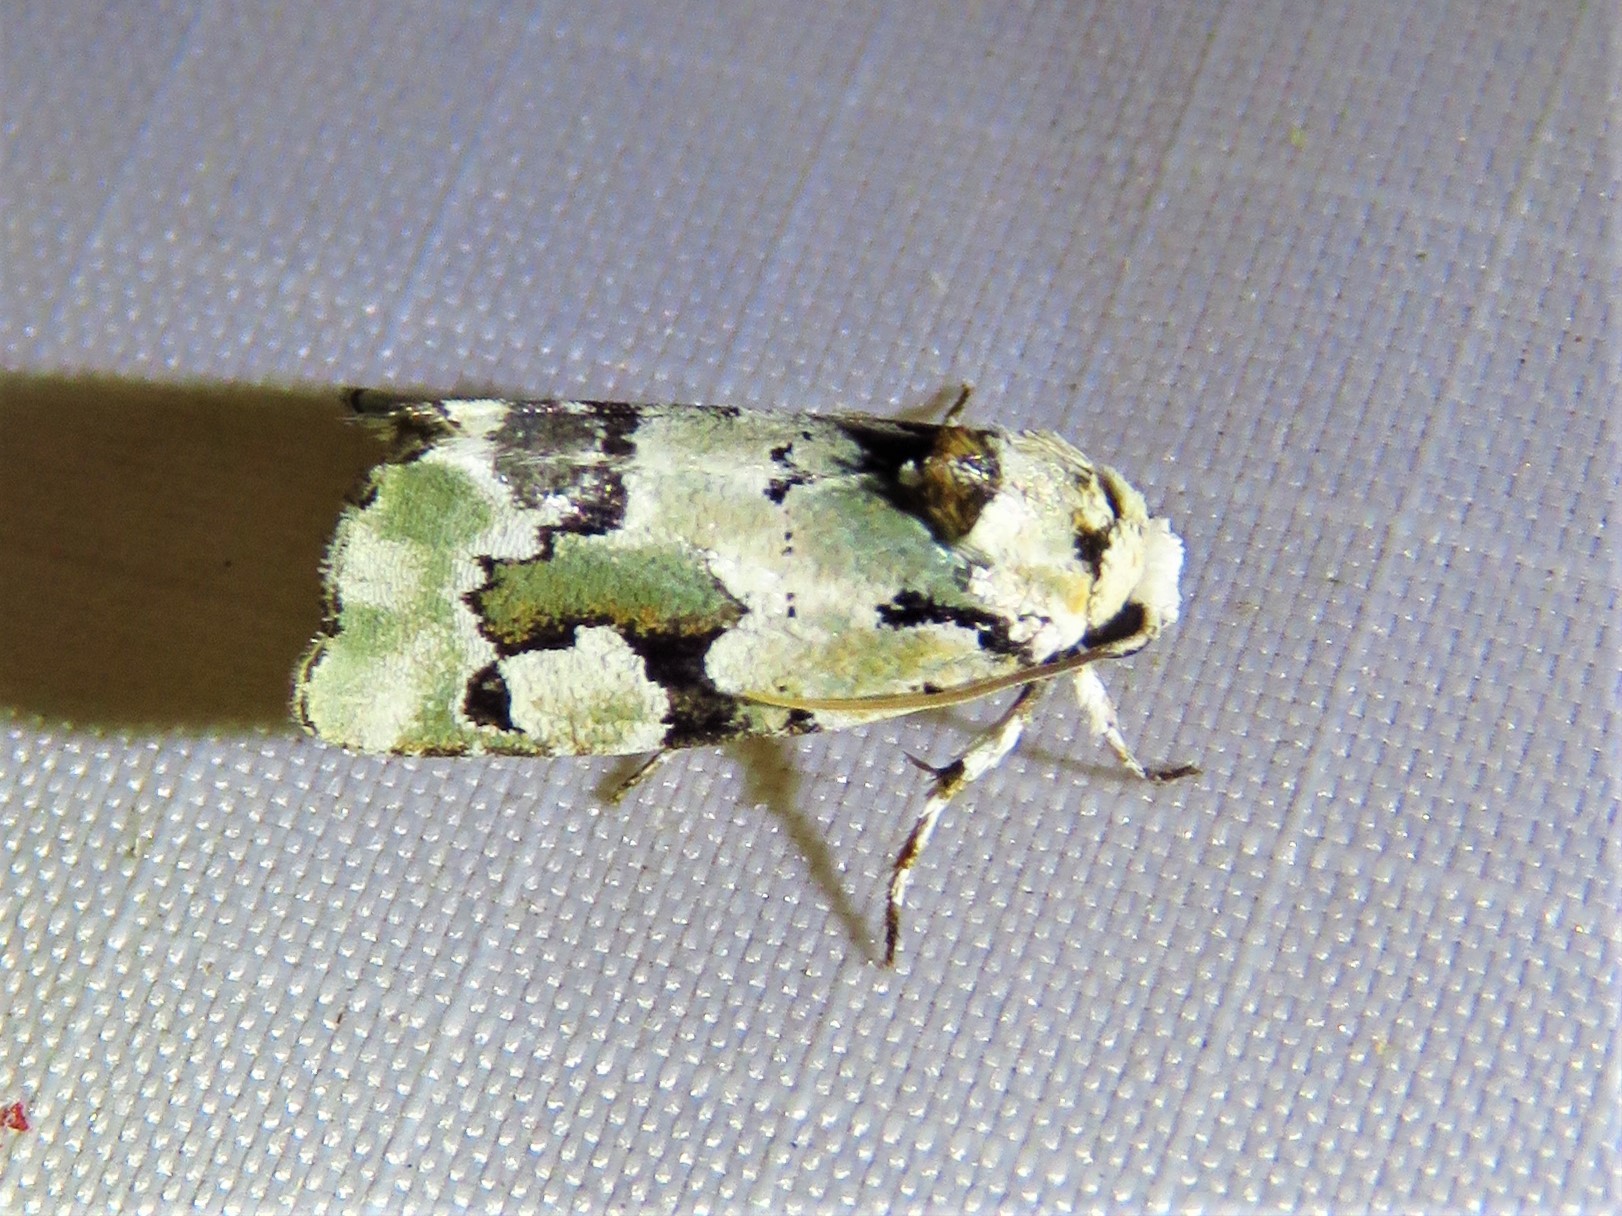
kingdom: Animalia
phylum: Arthropoda
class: Insecta
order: Lepidoptera
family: Noctuidae
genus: Emarginea
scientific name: Emarginea percara
